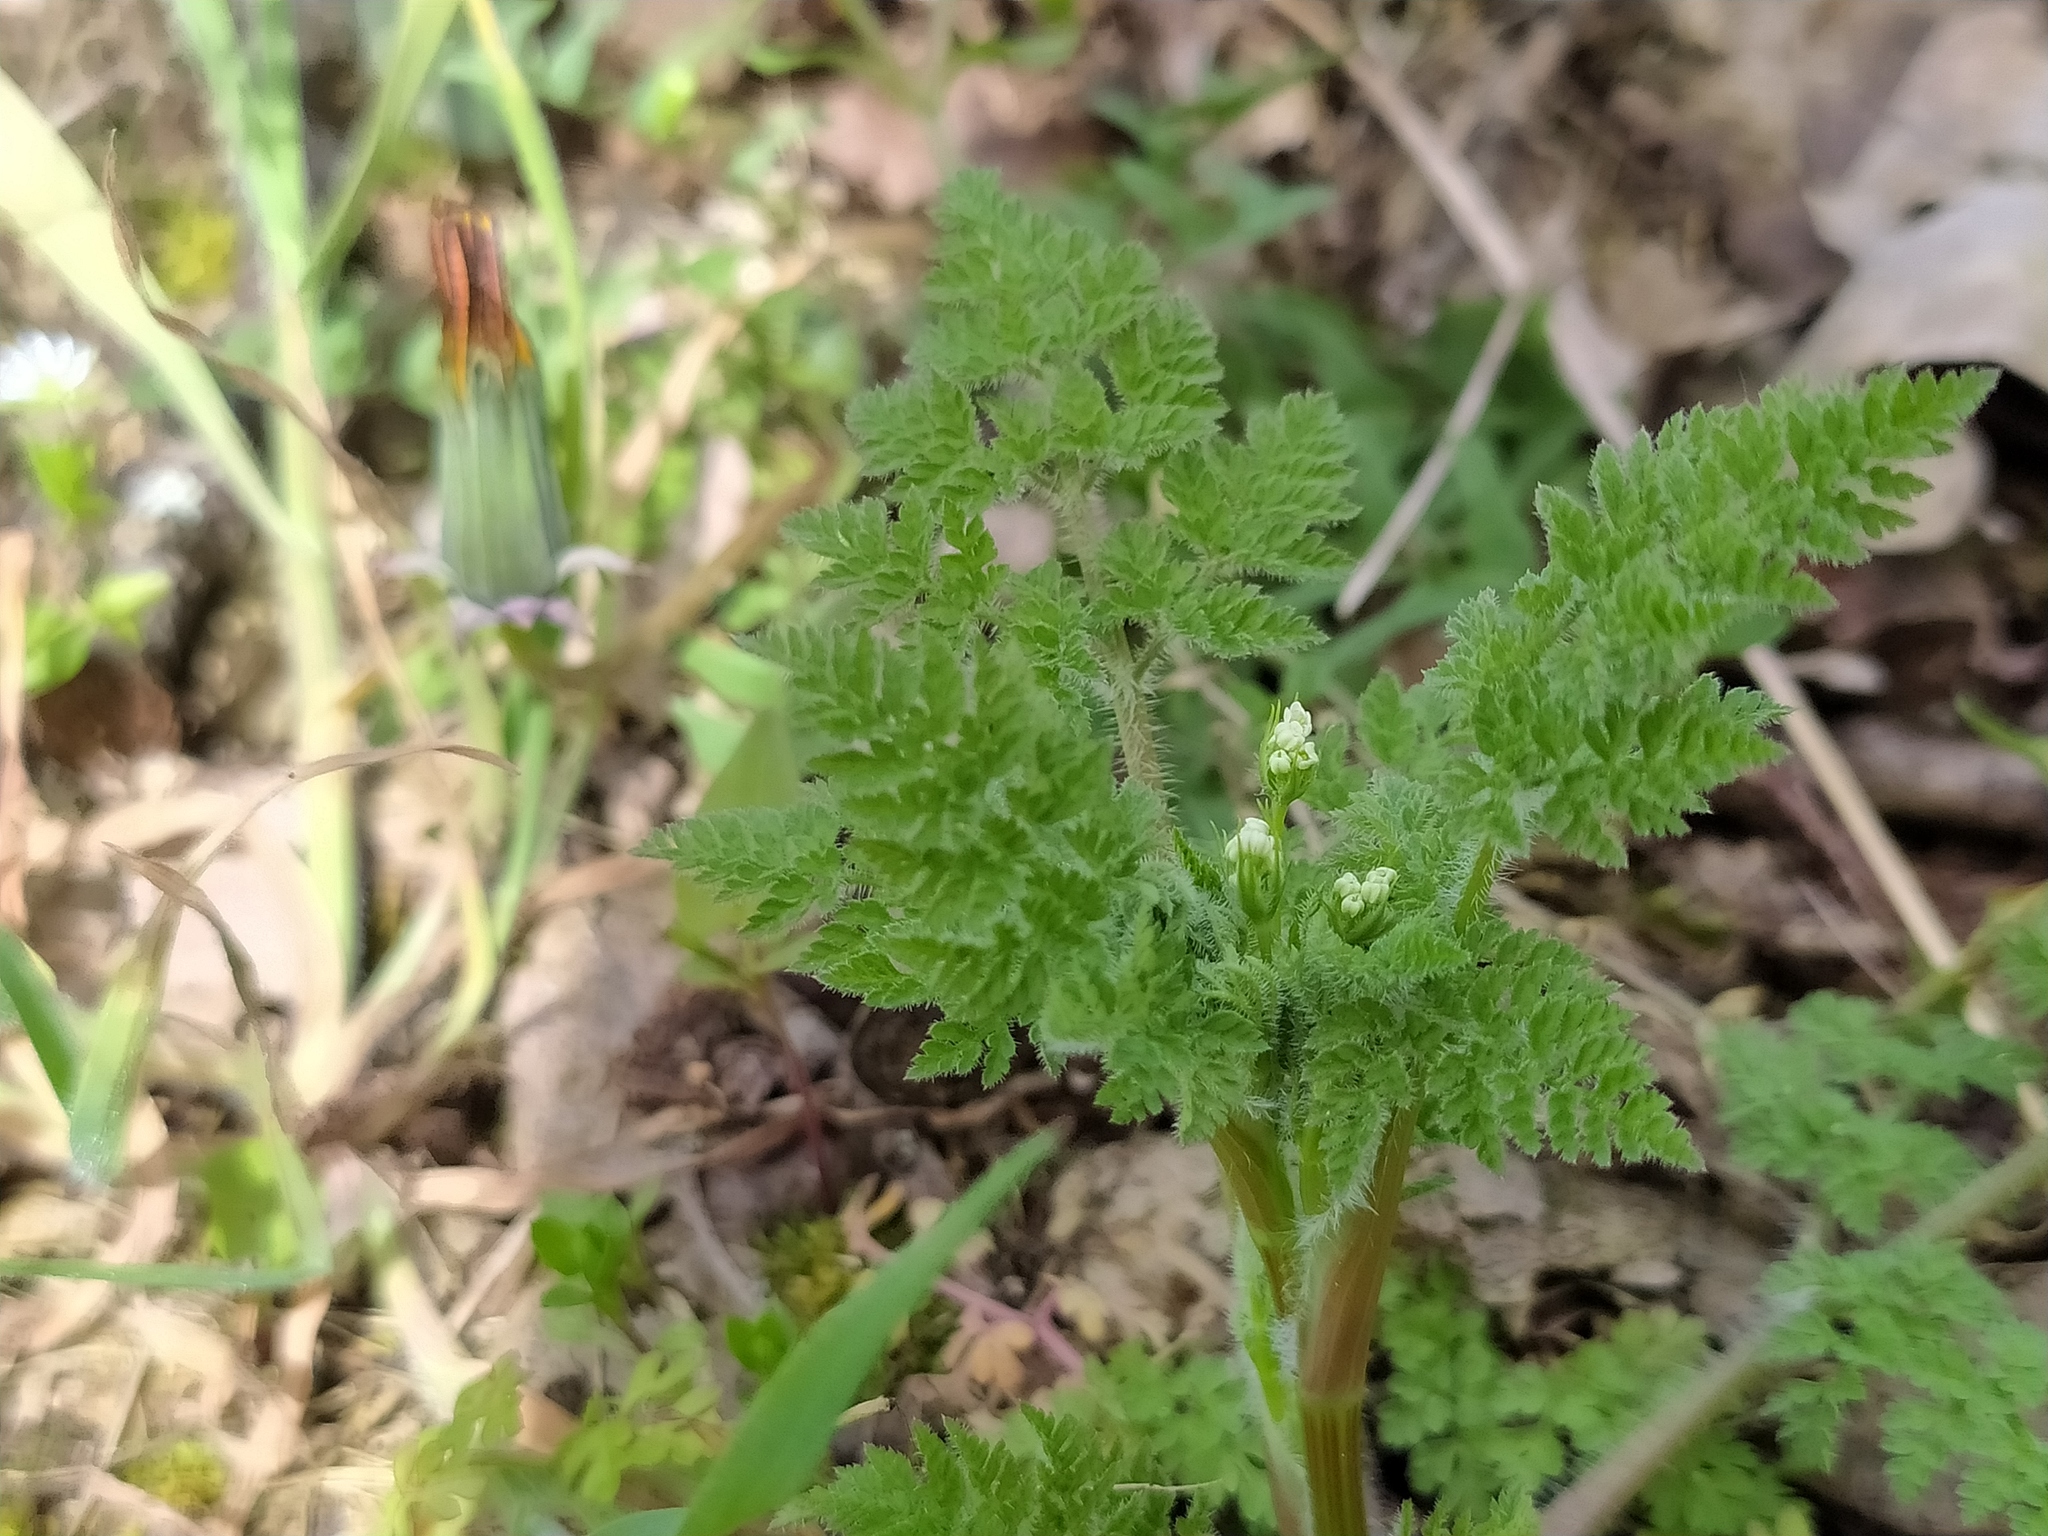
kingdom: Plantae
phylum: Tracheophyta
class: Magnoliopsida
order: Apiales
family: Apiaceae
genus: Anthriscus
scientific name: Anthriscus caucalis
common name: Bur chervil
